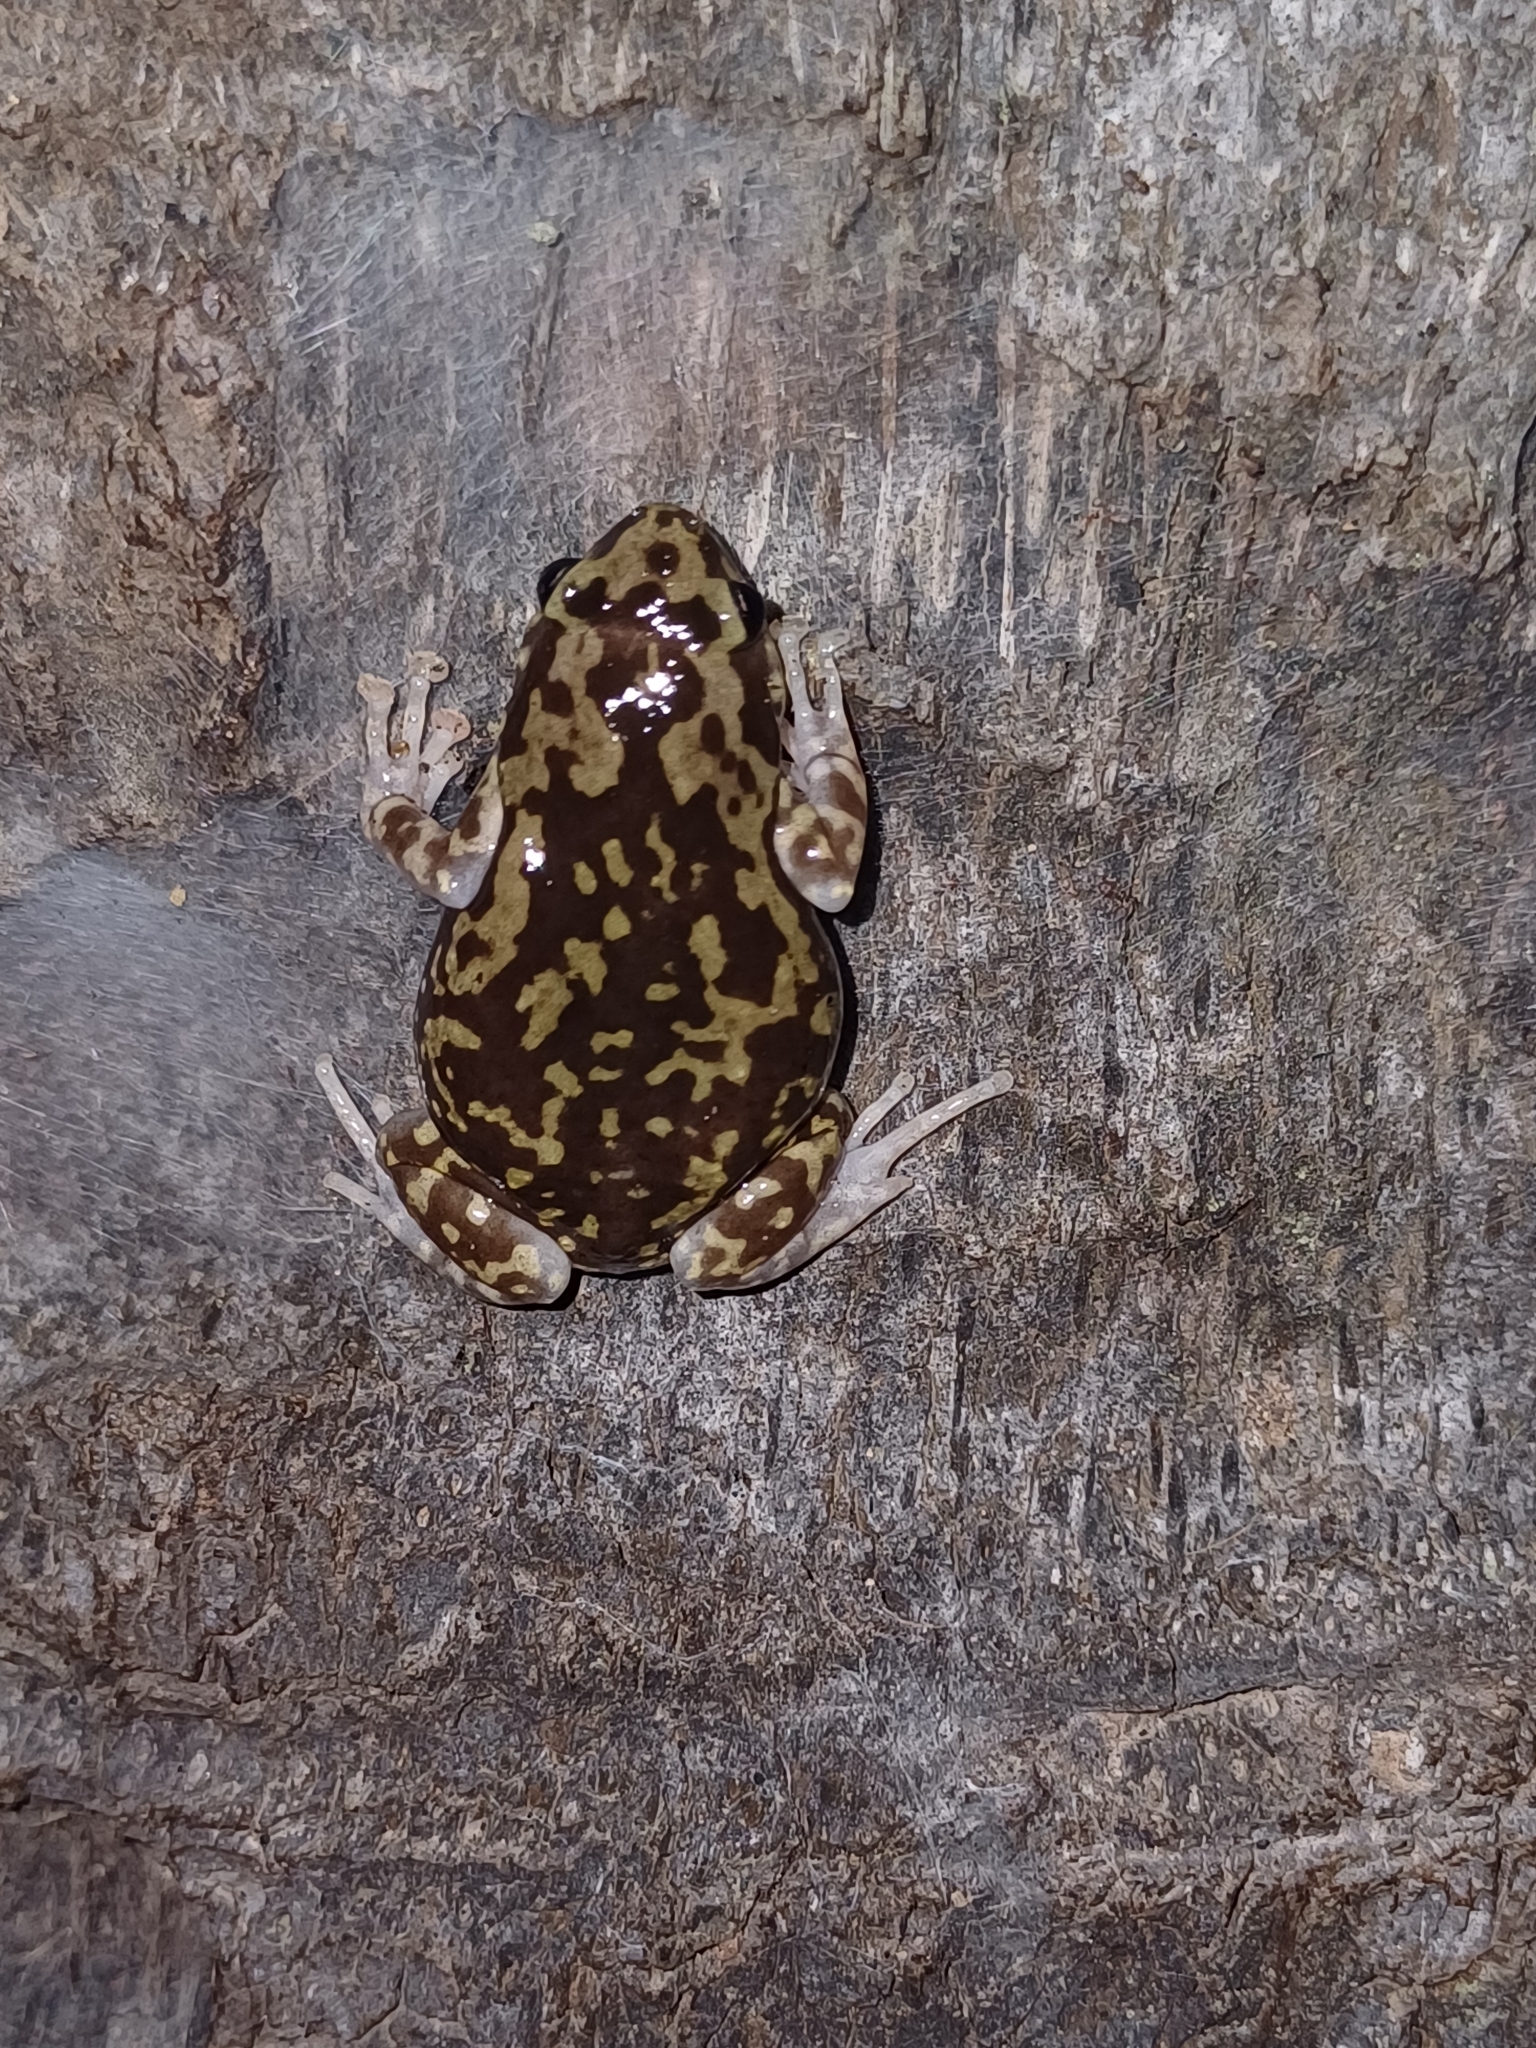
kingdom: Animalia
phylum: Chordata
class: Amphibia
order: Anura
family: Microhylidae
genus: Uperodon
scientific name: Uperodon variegatus
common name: Eluru dot frog
